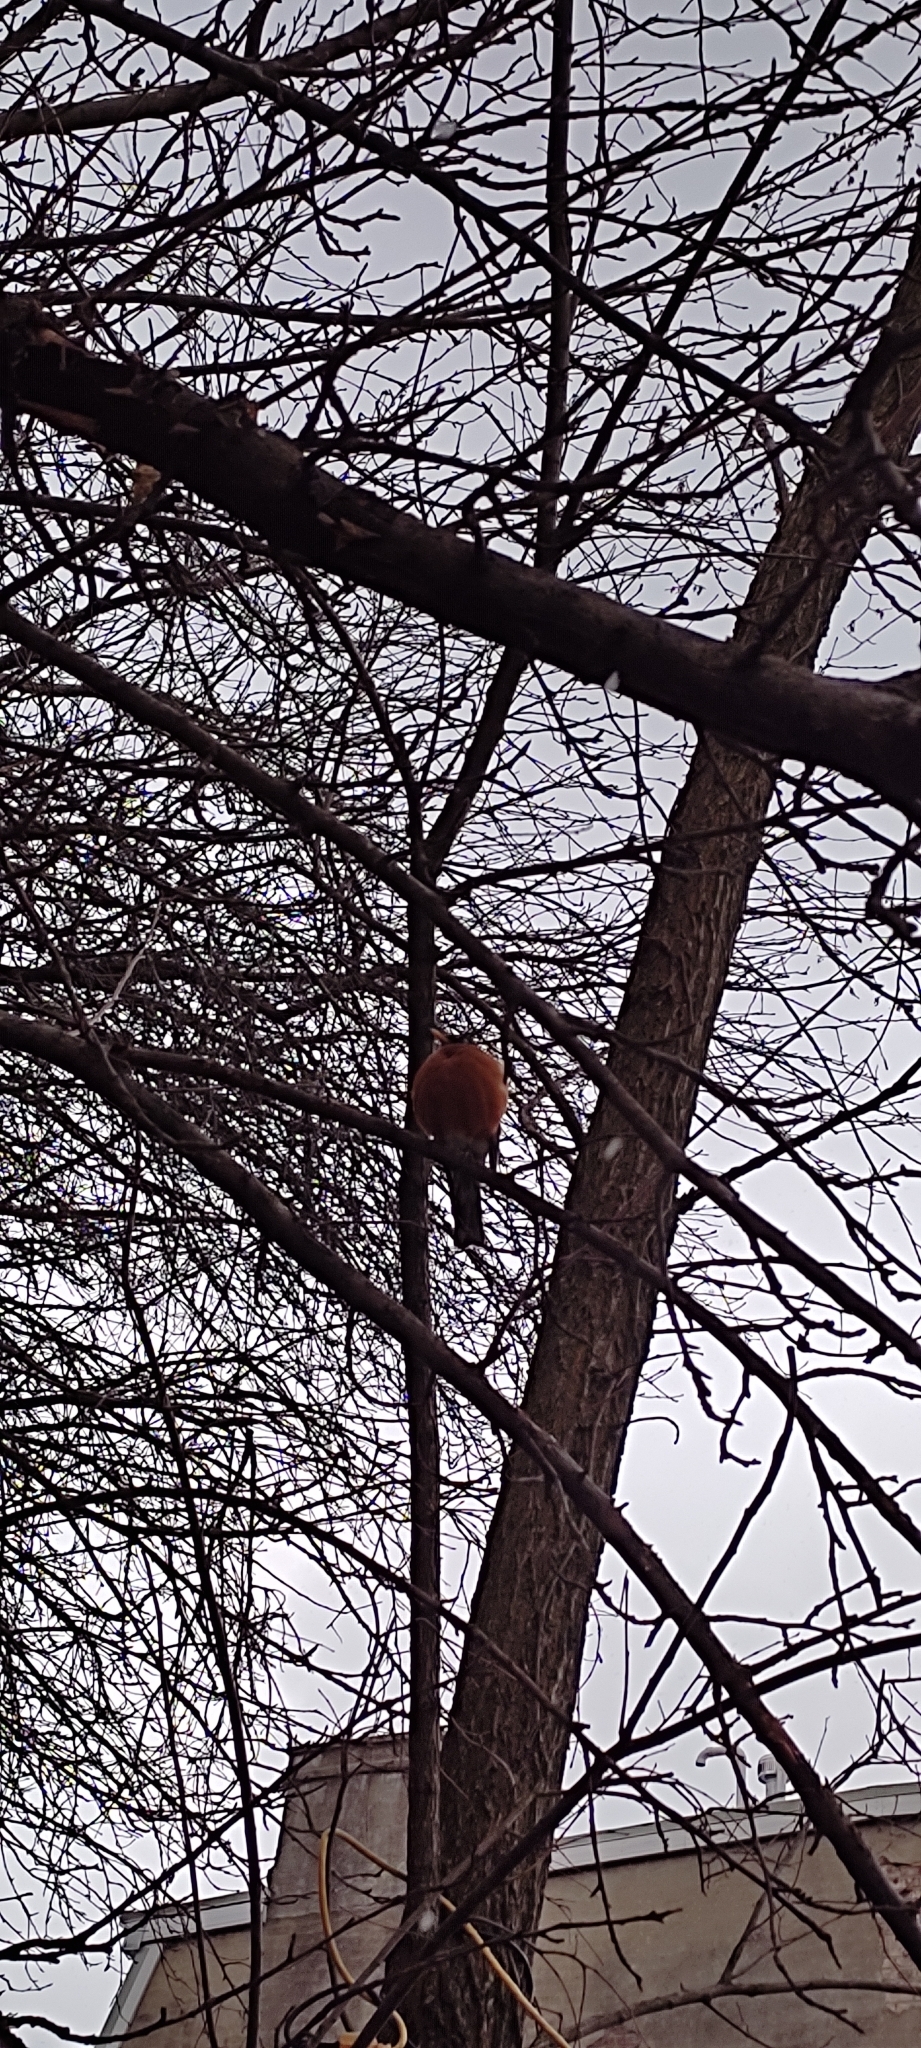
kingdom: Animalia
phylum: Chordata
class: Aves
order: Passeriformes
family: Turdidae
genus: Turdus
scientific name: Turdus migratorius
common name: American robin
